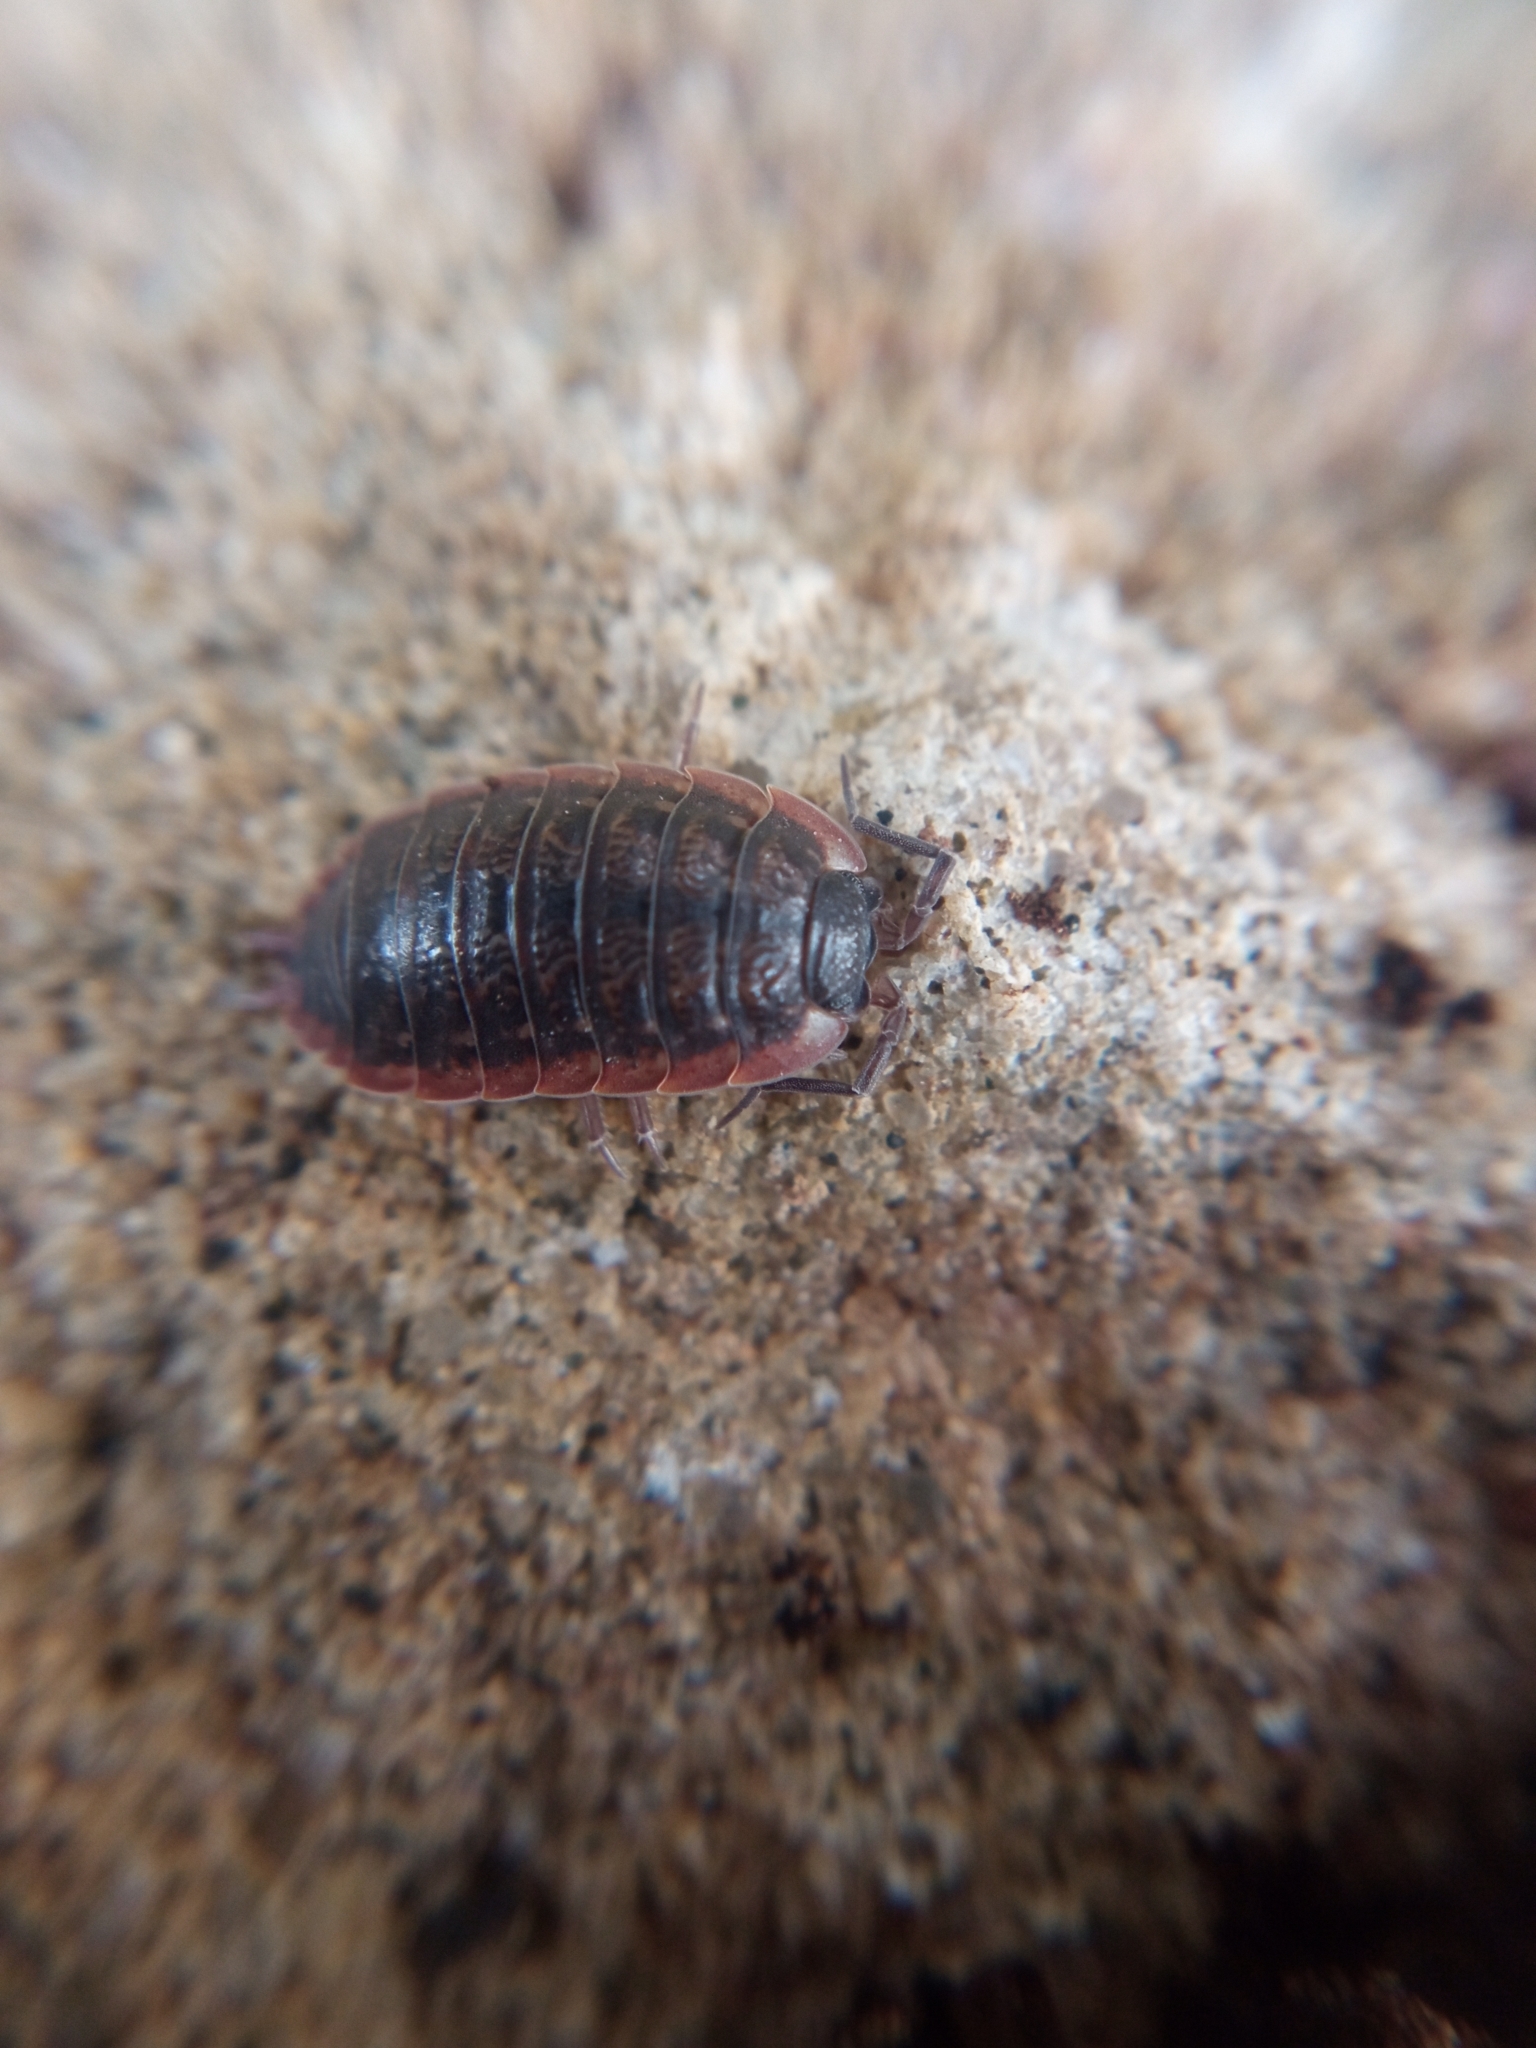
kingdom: Animalia
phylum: Arthropoda
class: Malacostraca
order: Isopoda
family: Porcellionidae
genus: Porcellio
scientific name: Porcellio montanus
